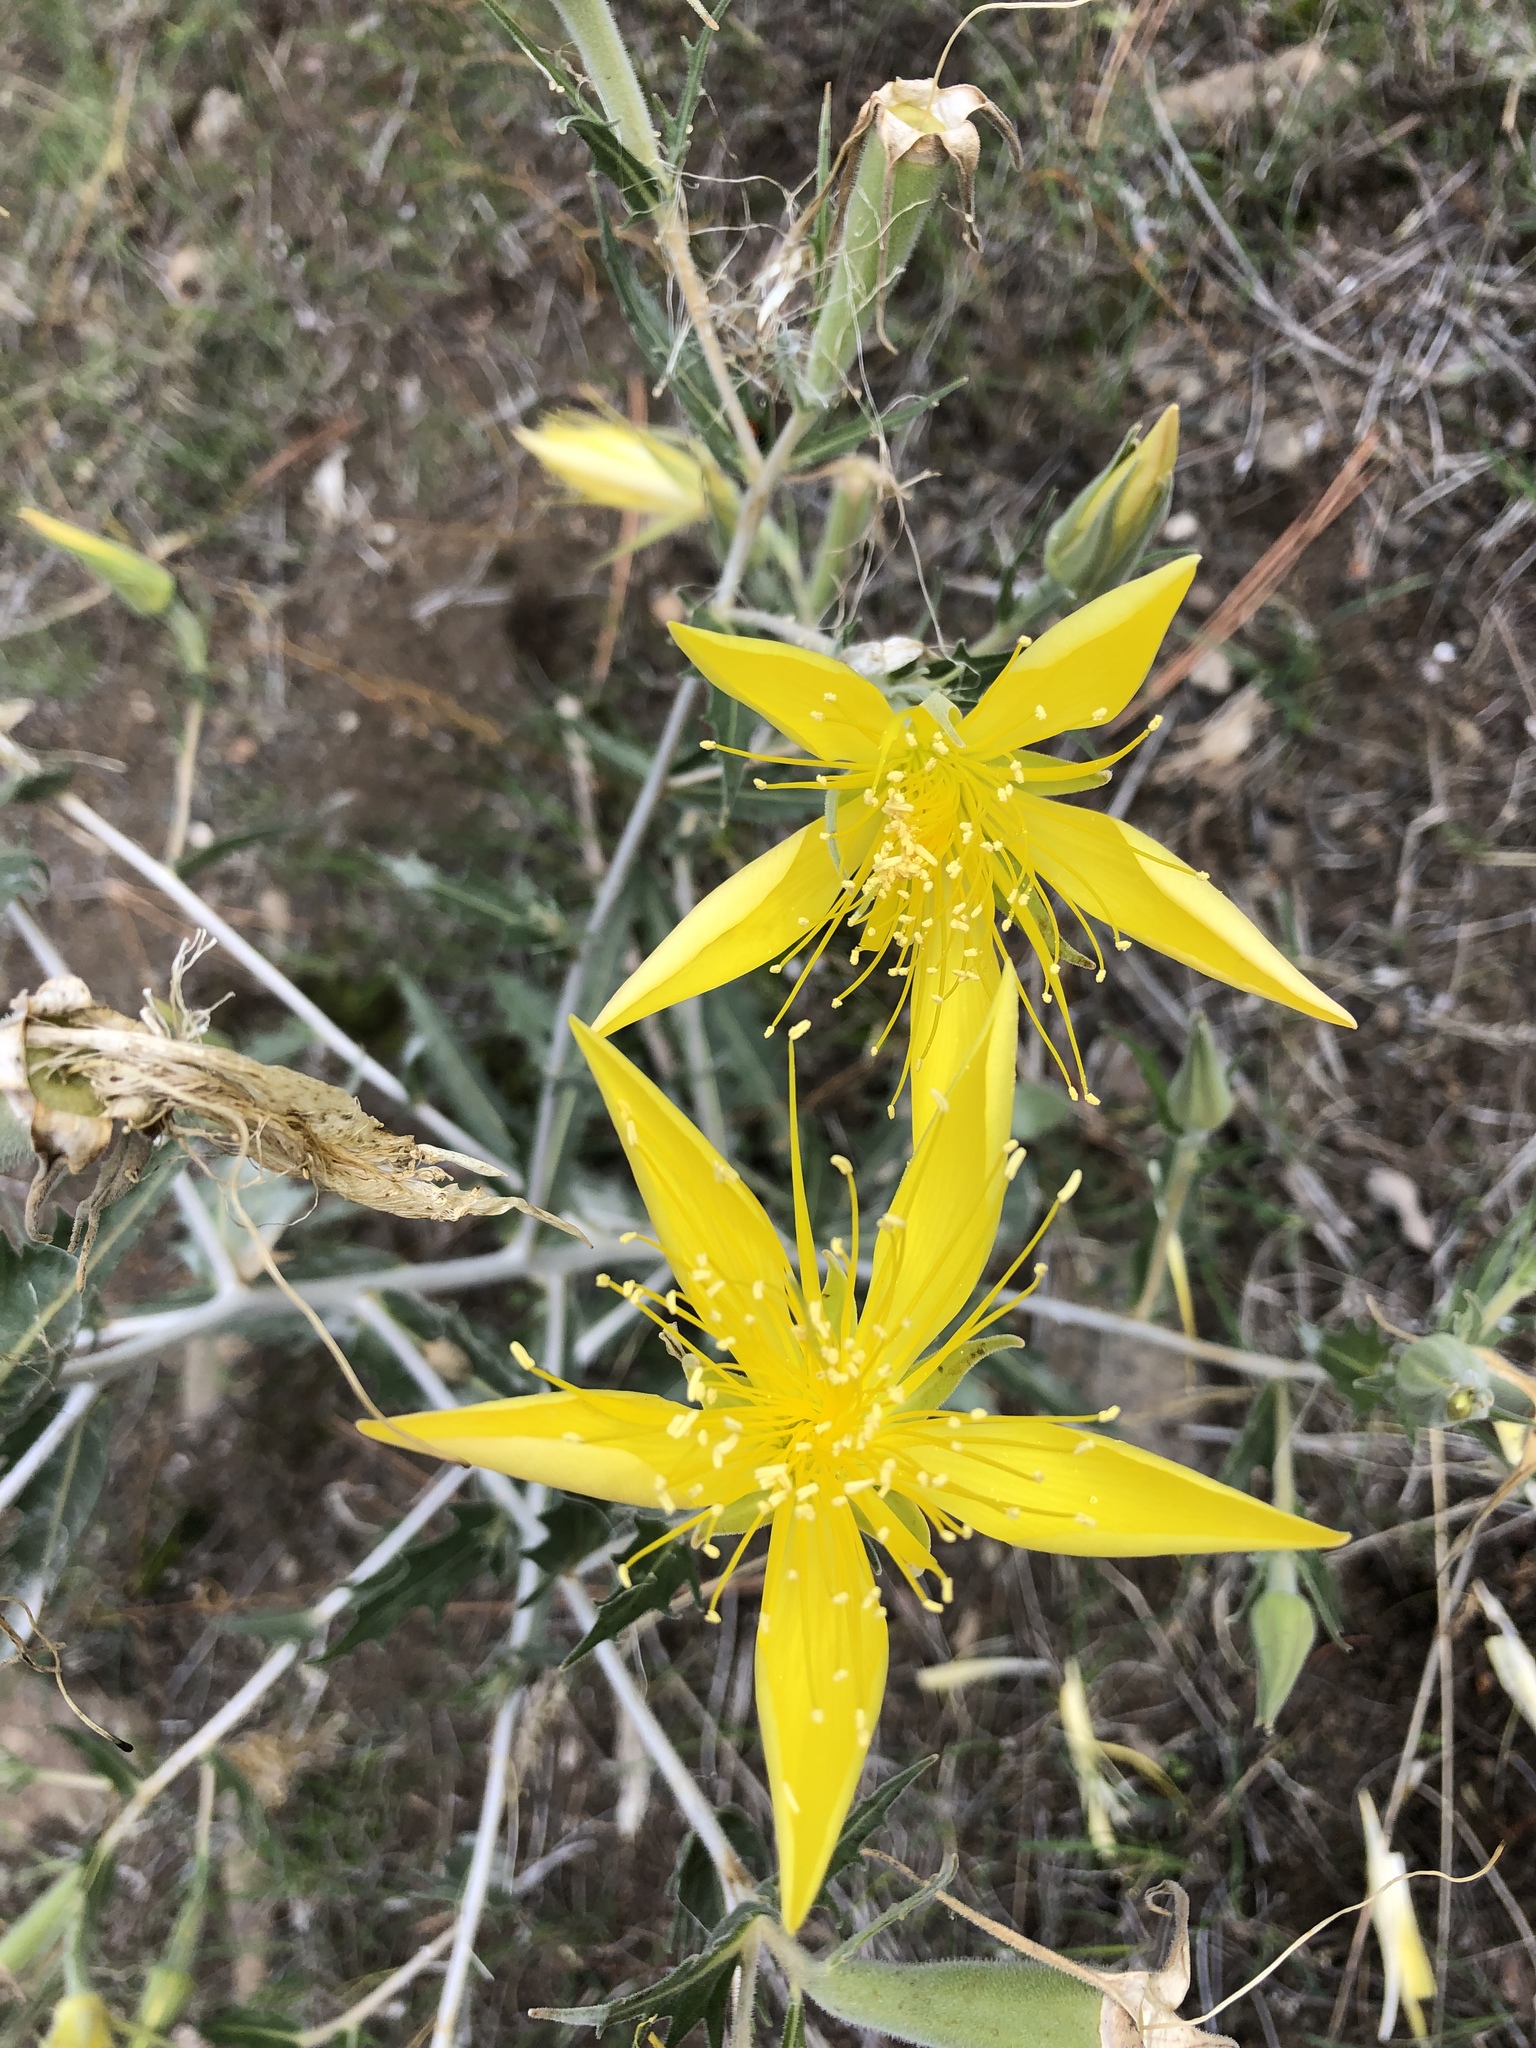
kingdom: Plantae
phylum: Tracheophyta
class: Magnoliopsida
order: Cornales
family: Loasaceae
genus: Mentzelia
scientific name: Mentzelia laevicaulis
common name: Smooth-stem blazingstar
